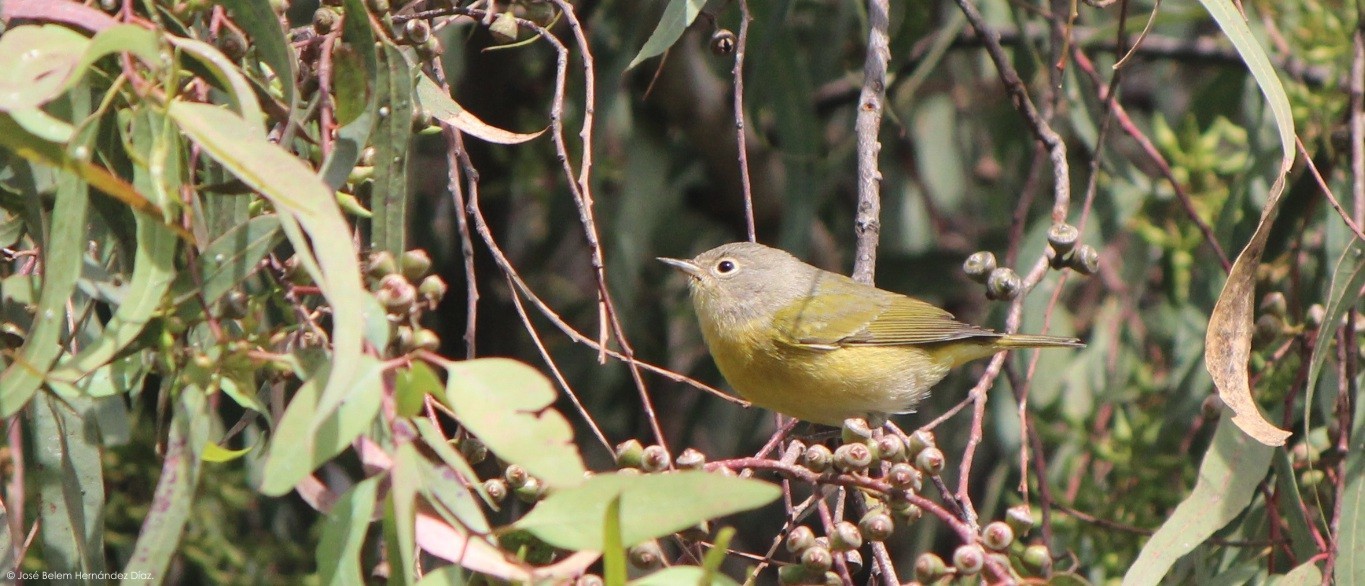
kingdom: Animalia
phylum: Chordata
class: Aves
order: Passeriformes
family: Parulidae
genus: Leiothlypis
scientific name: Leiothlypis ruficapilla
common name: Nashville warbler
